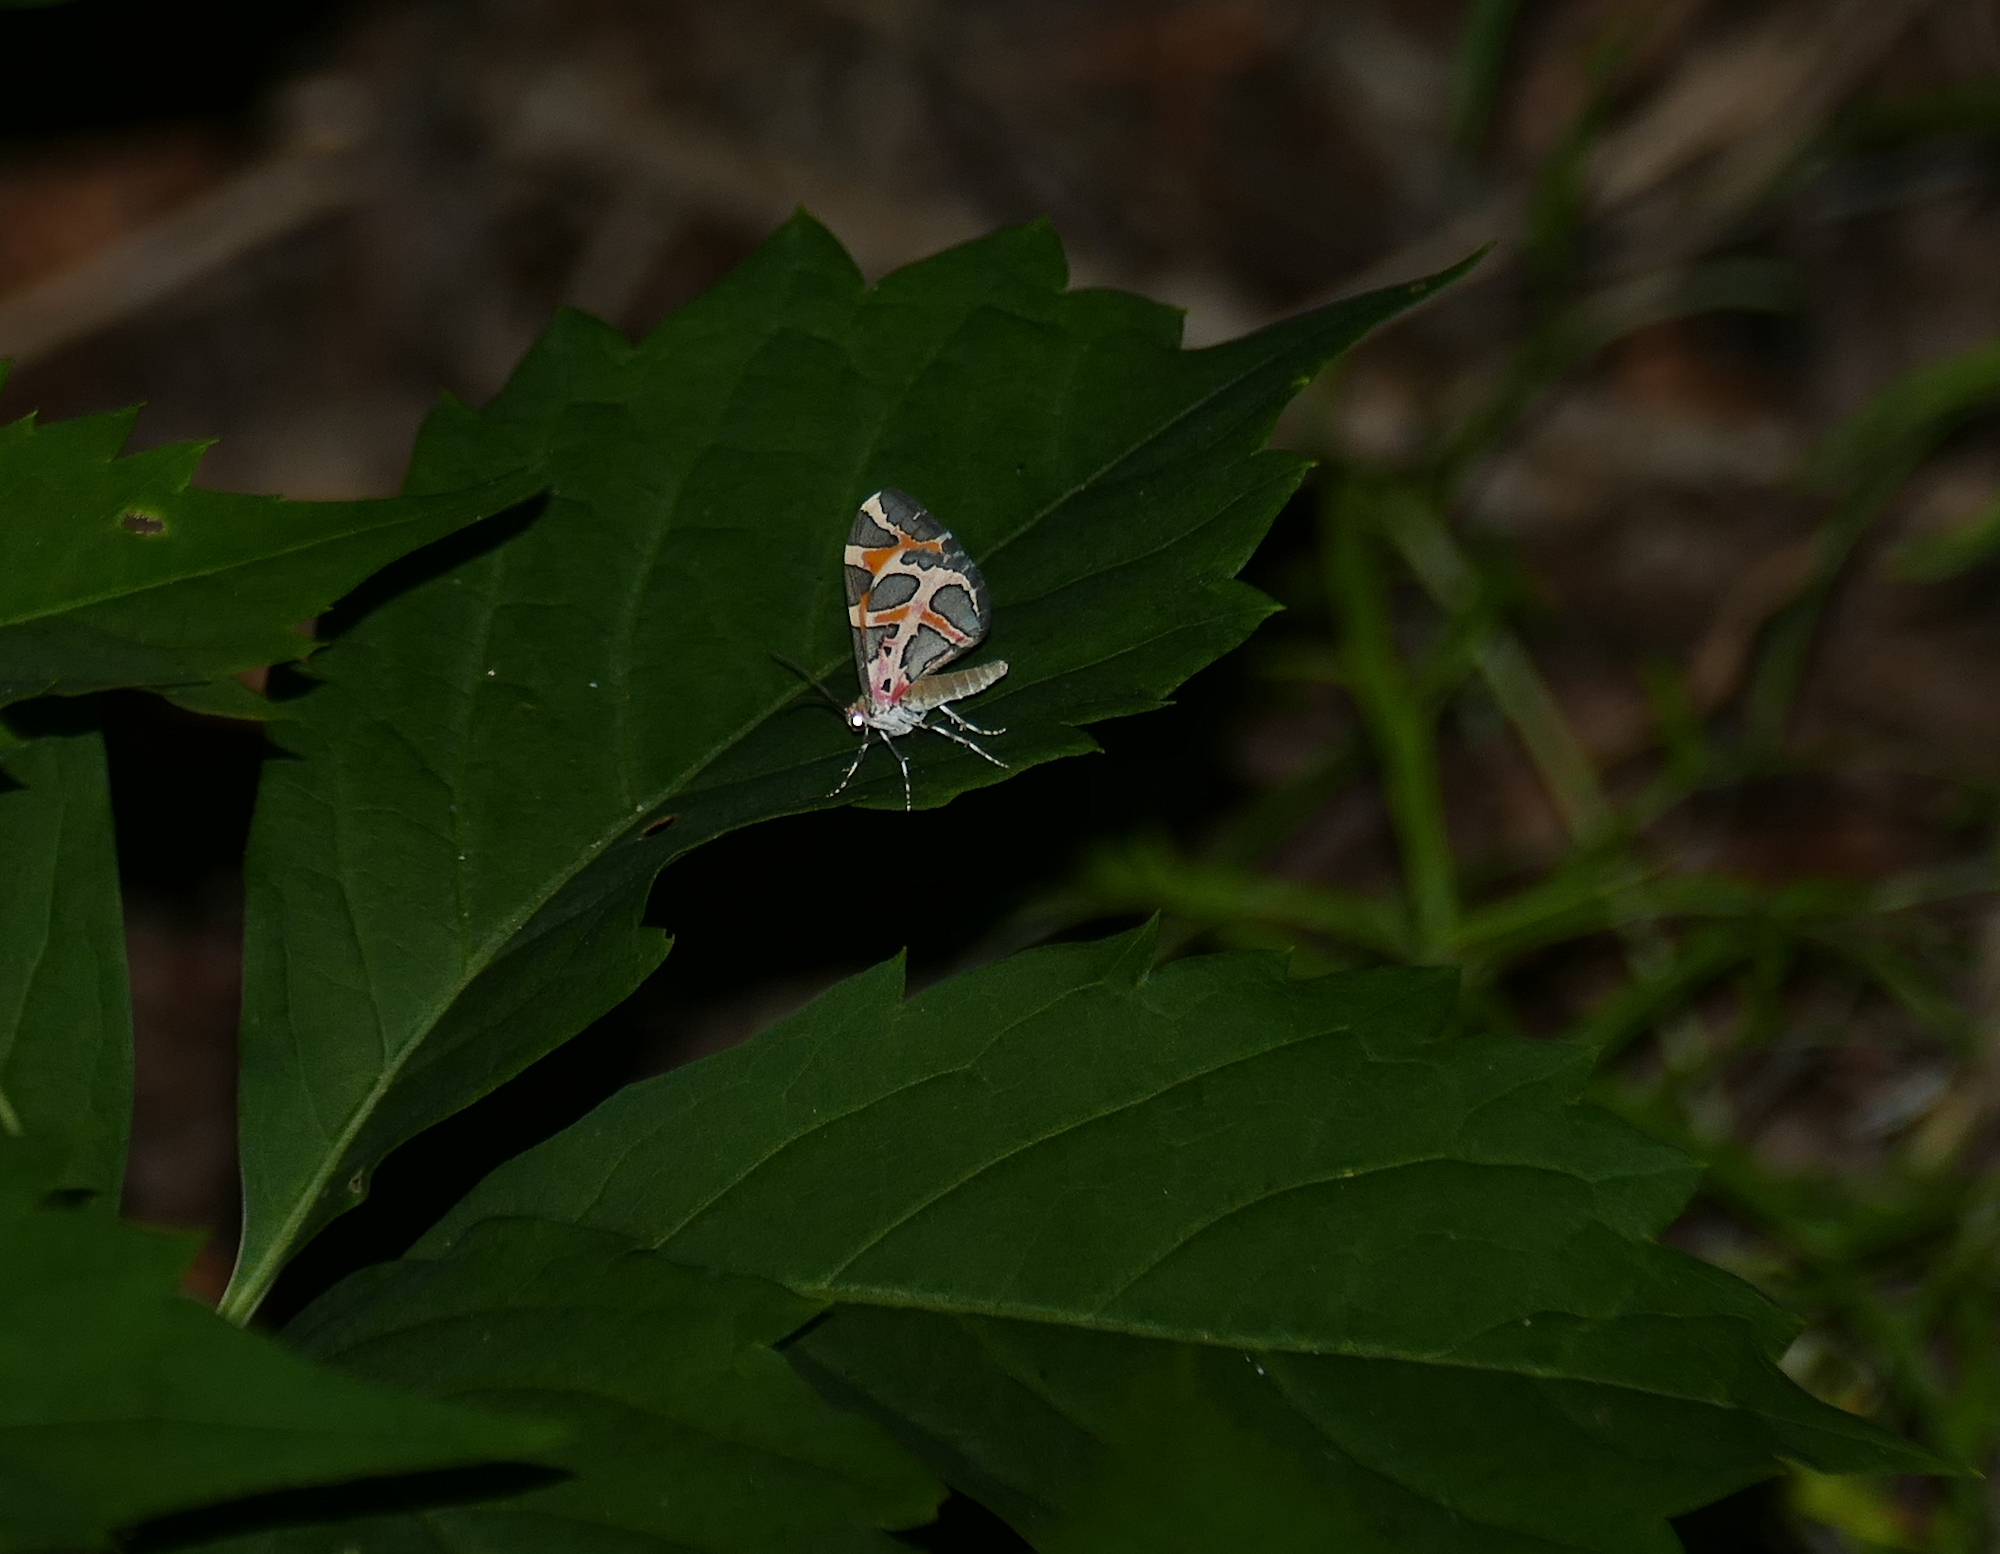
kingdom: Animalia
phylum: Arthropoda
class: Insecta
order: Lepidoptera
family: Geometridae
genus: Stamnodes
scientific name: Stamnodes deceptiva
